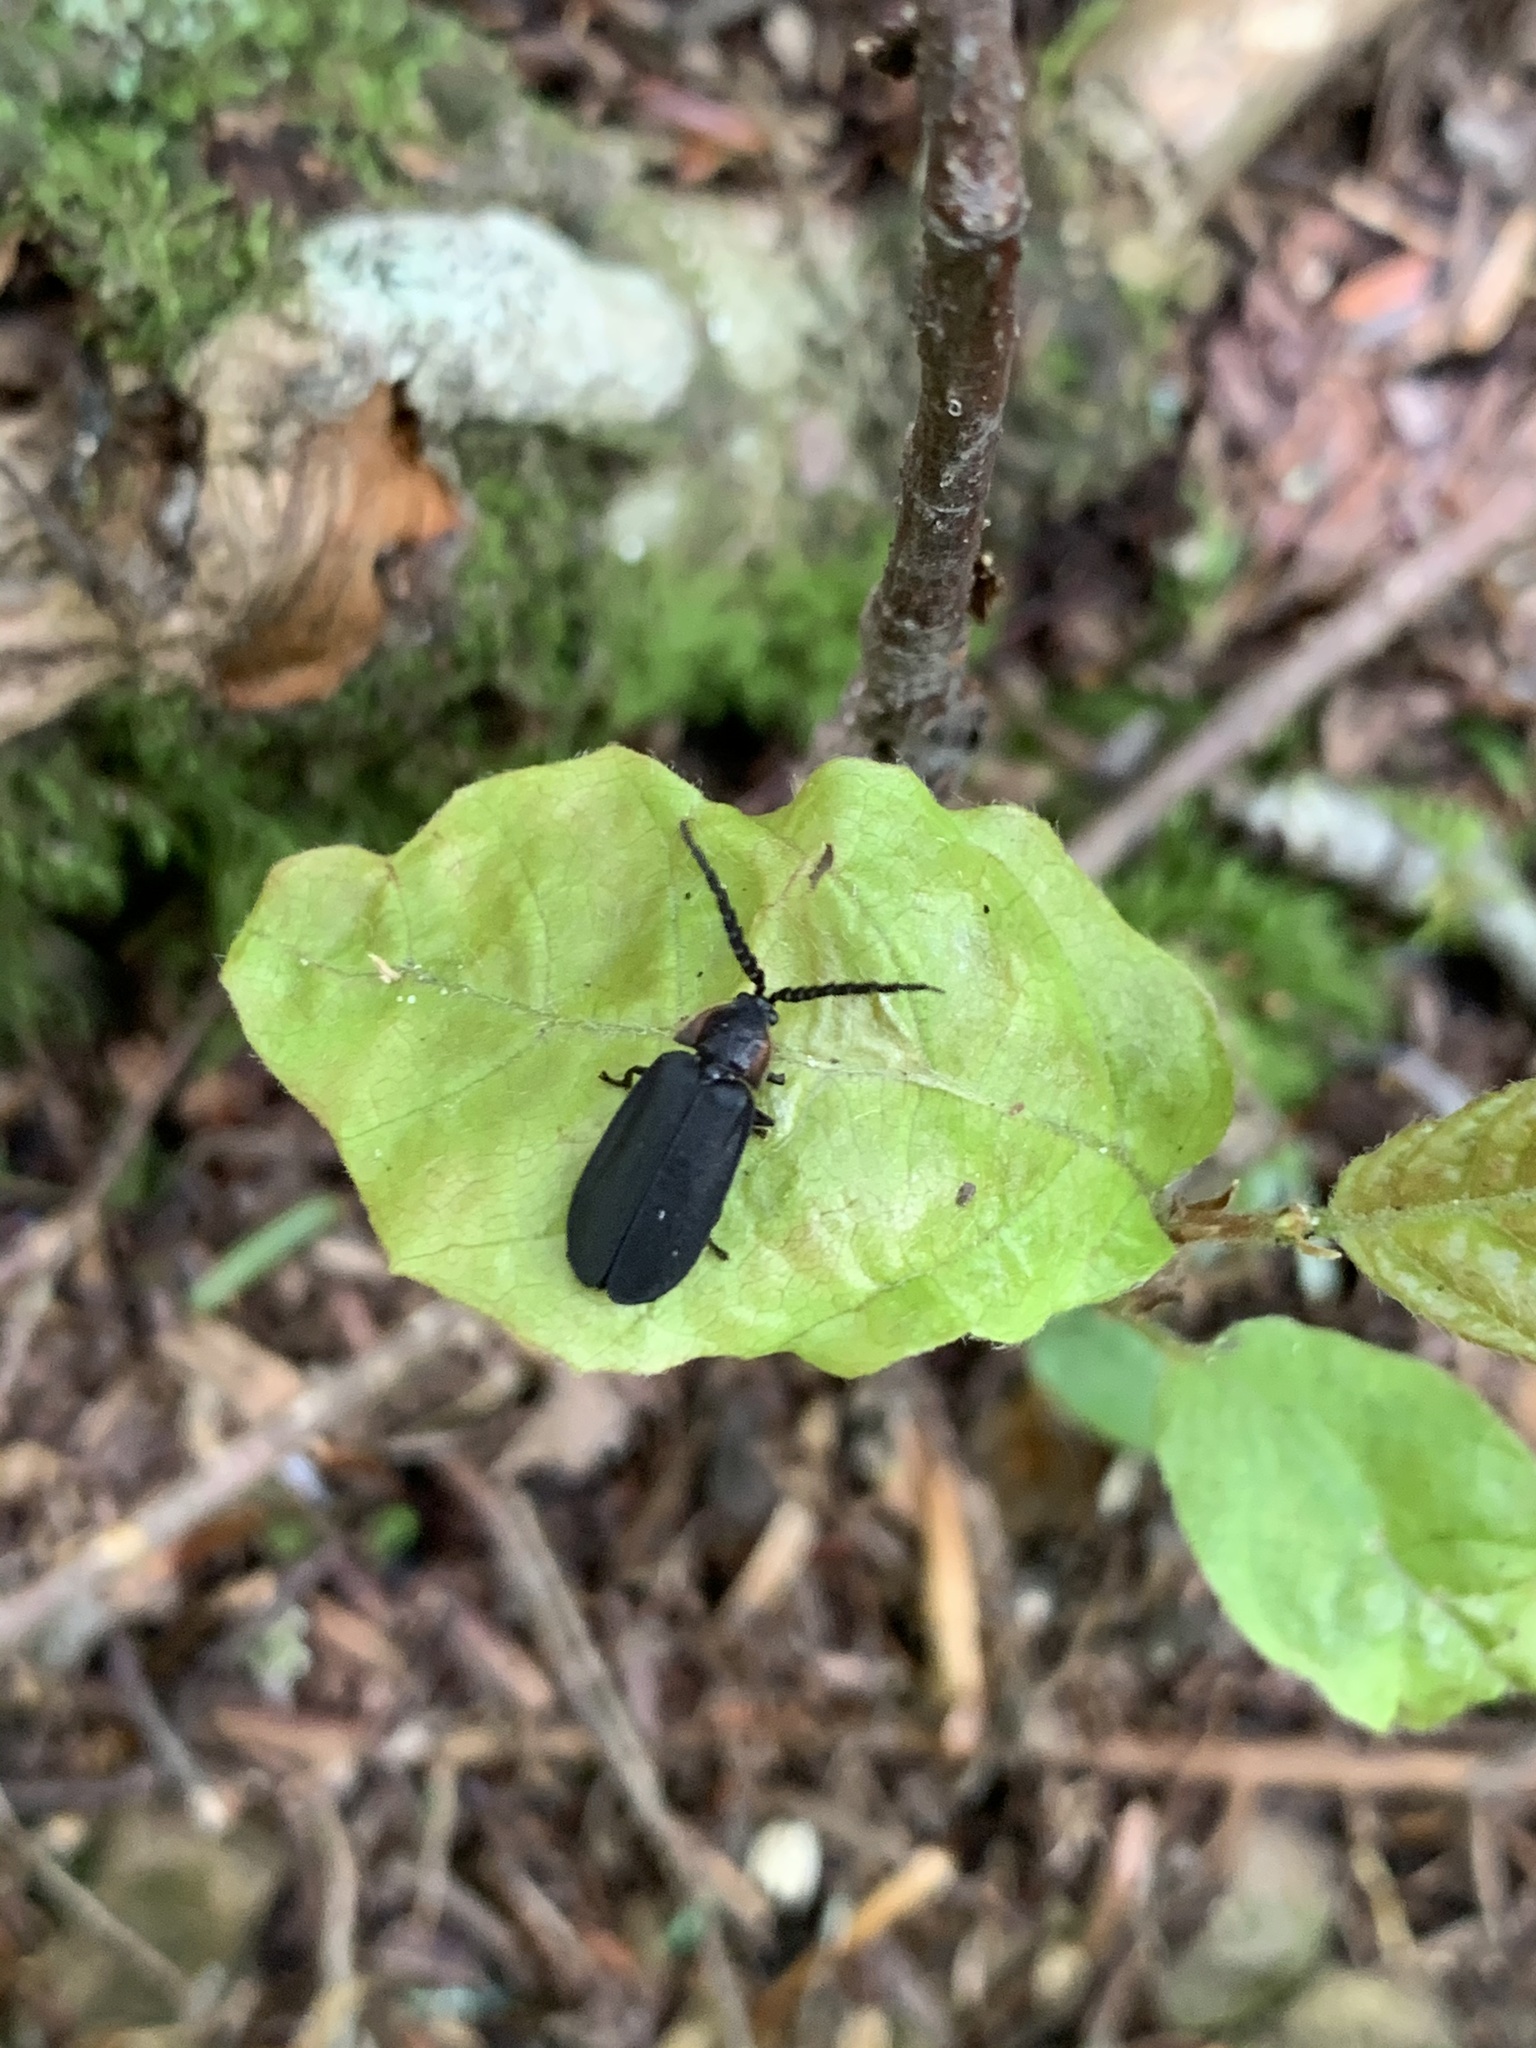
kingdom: Animalia
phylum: Arthropoda
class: Insecta
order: Coleoptera
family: Lampyridae
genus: Lucidota
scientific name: Lucidota atra
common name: Black firefly
